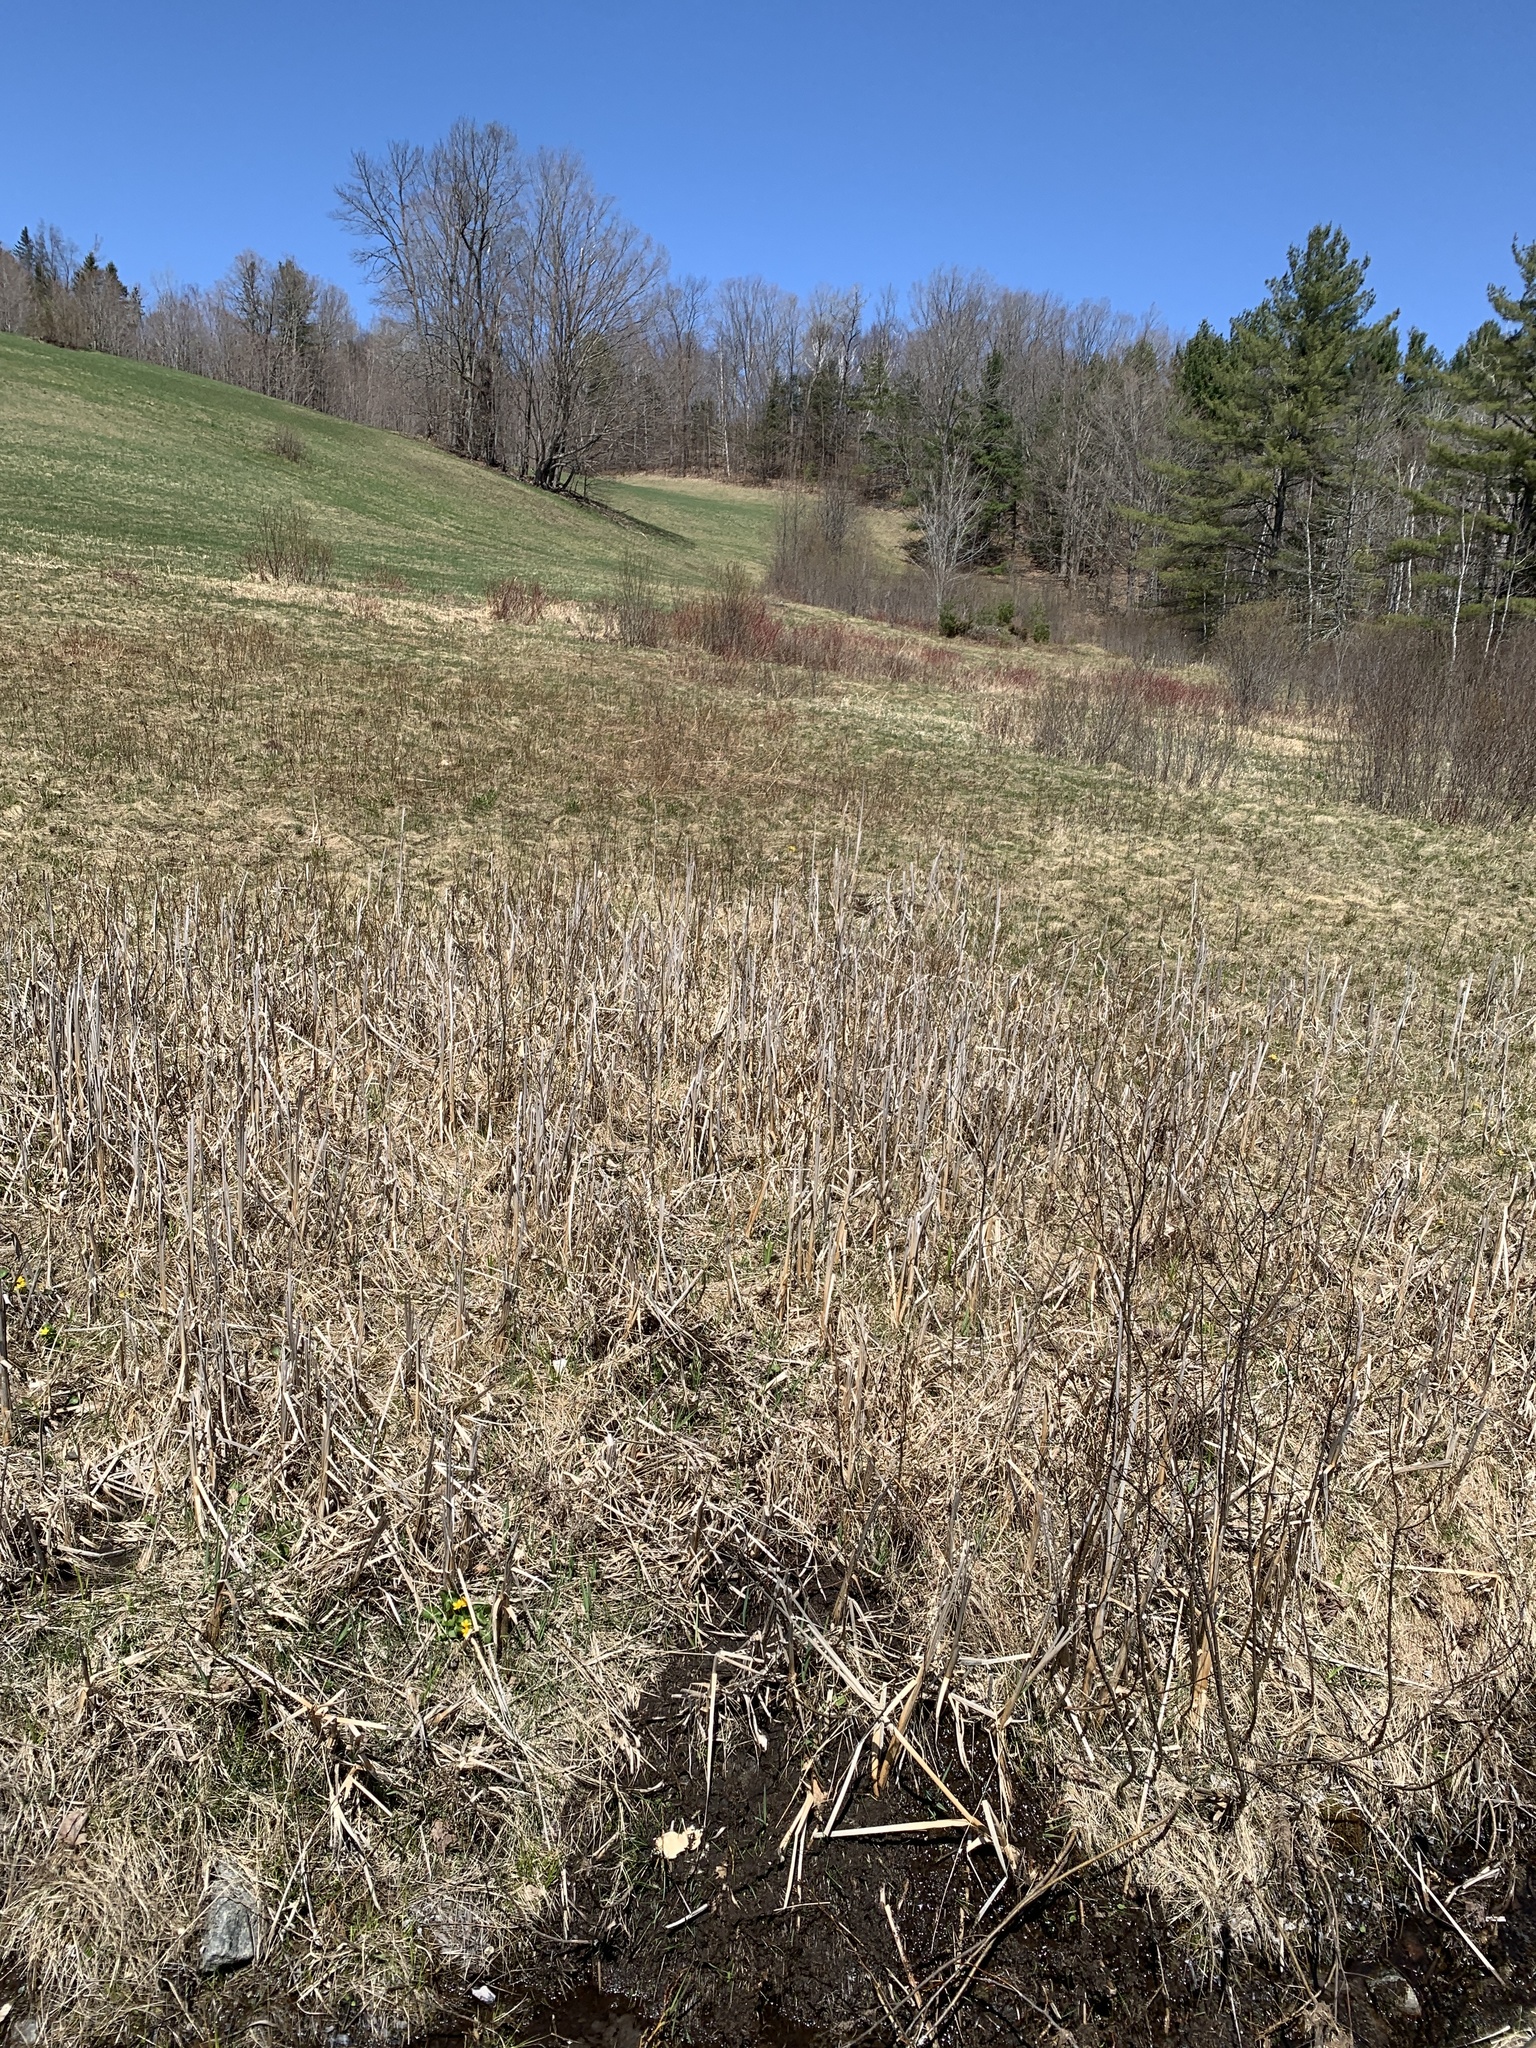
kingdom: Plantae
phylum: Tracheophyta
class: Liliopsida
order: Poales
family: Typhaceae
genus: Typha
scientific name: Typha
